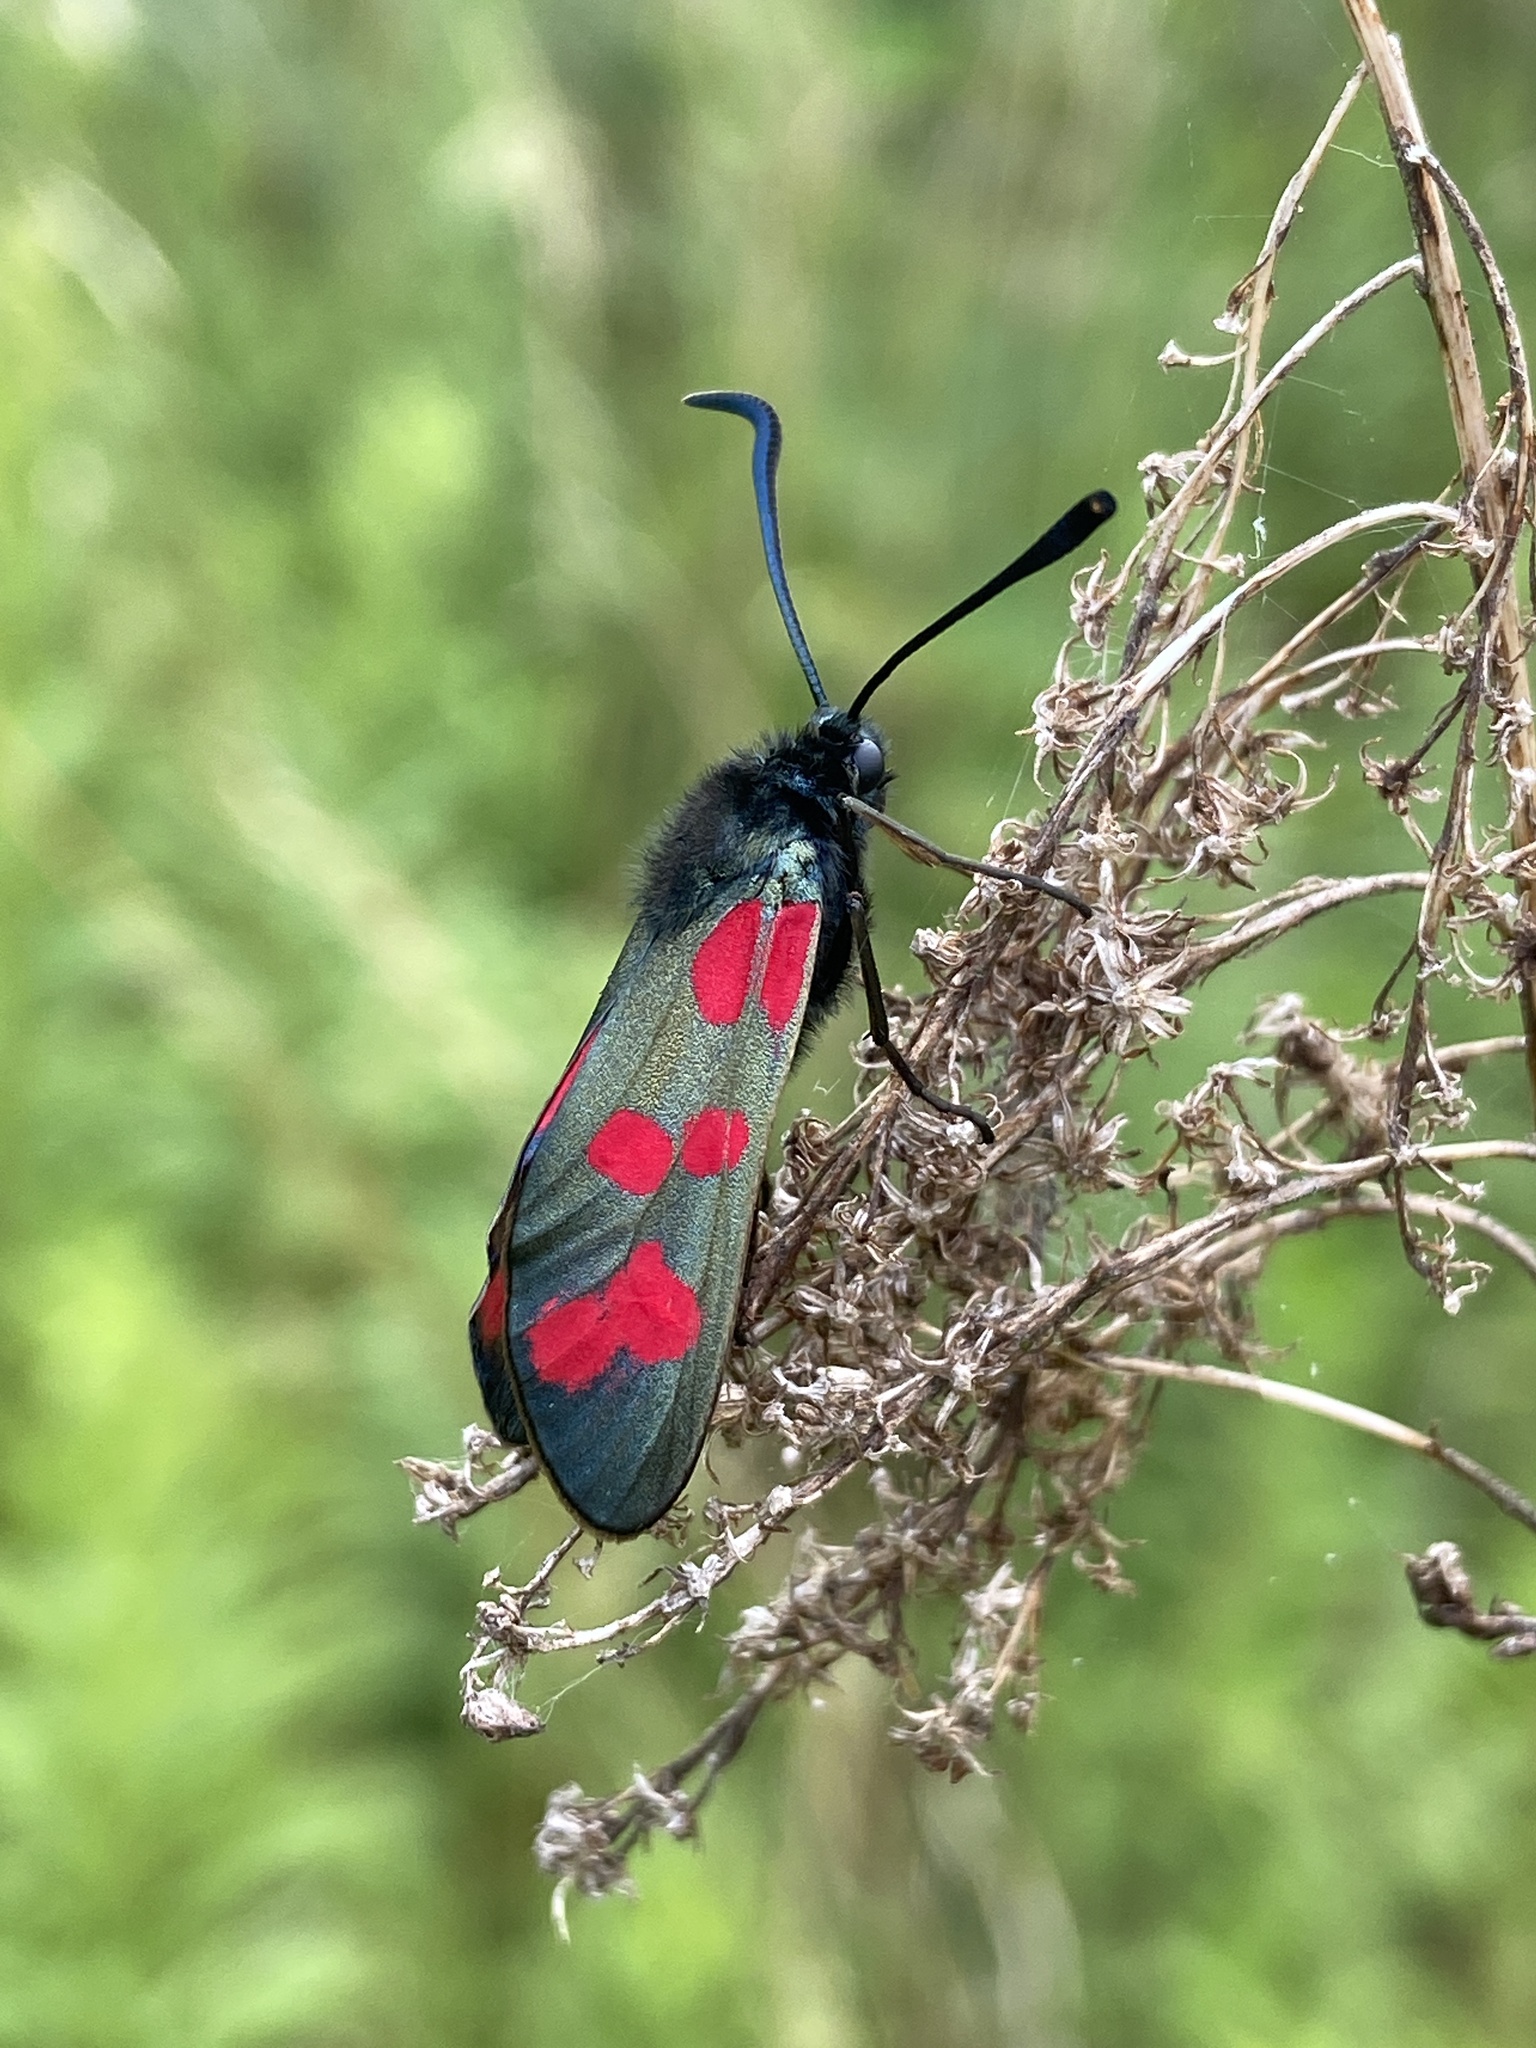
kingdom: Animalia
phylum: Arthropoda
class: Insecta
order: Lepidoptera
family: Zygaenidae
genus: Zygaena
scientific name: Zygaena filipendulae
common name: Six-spot burnet
